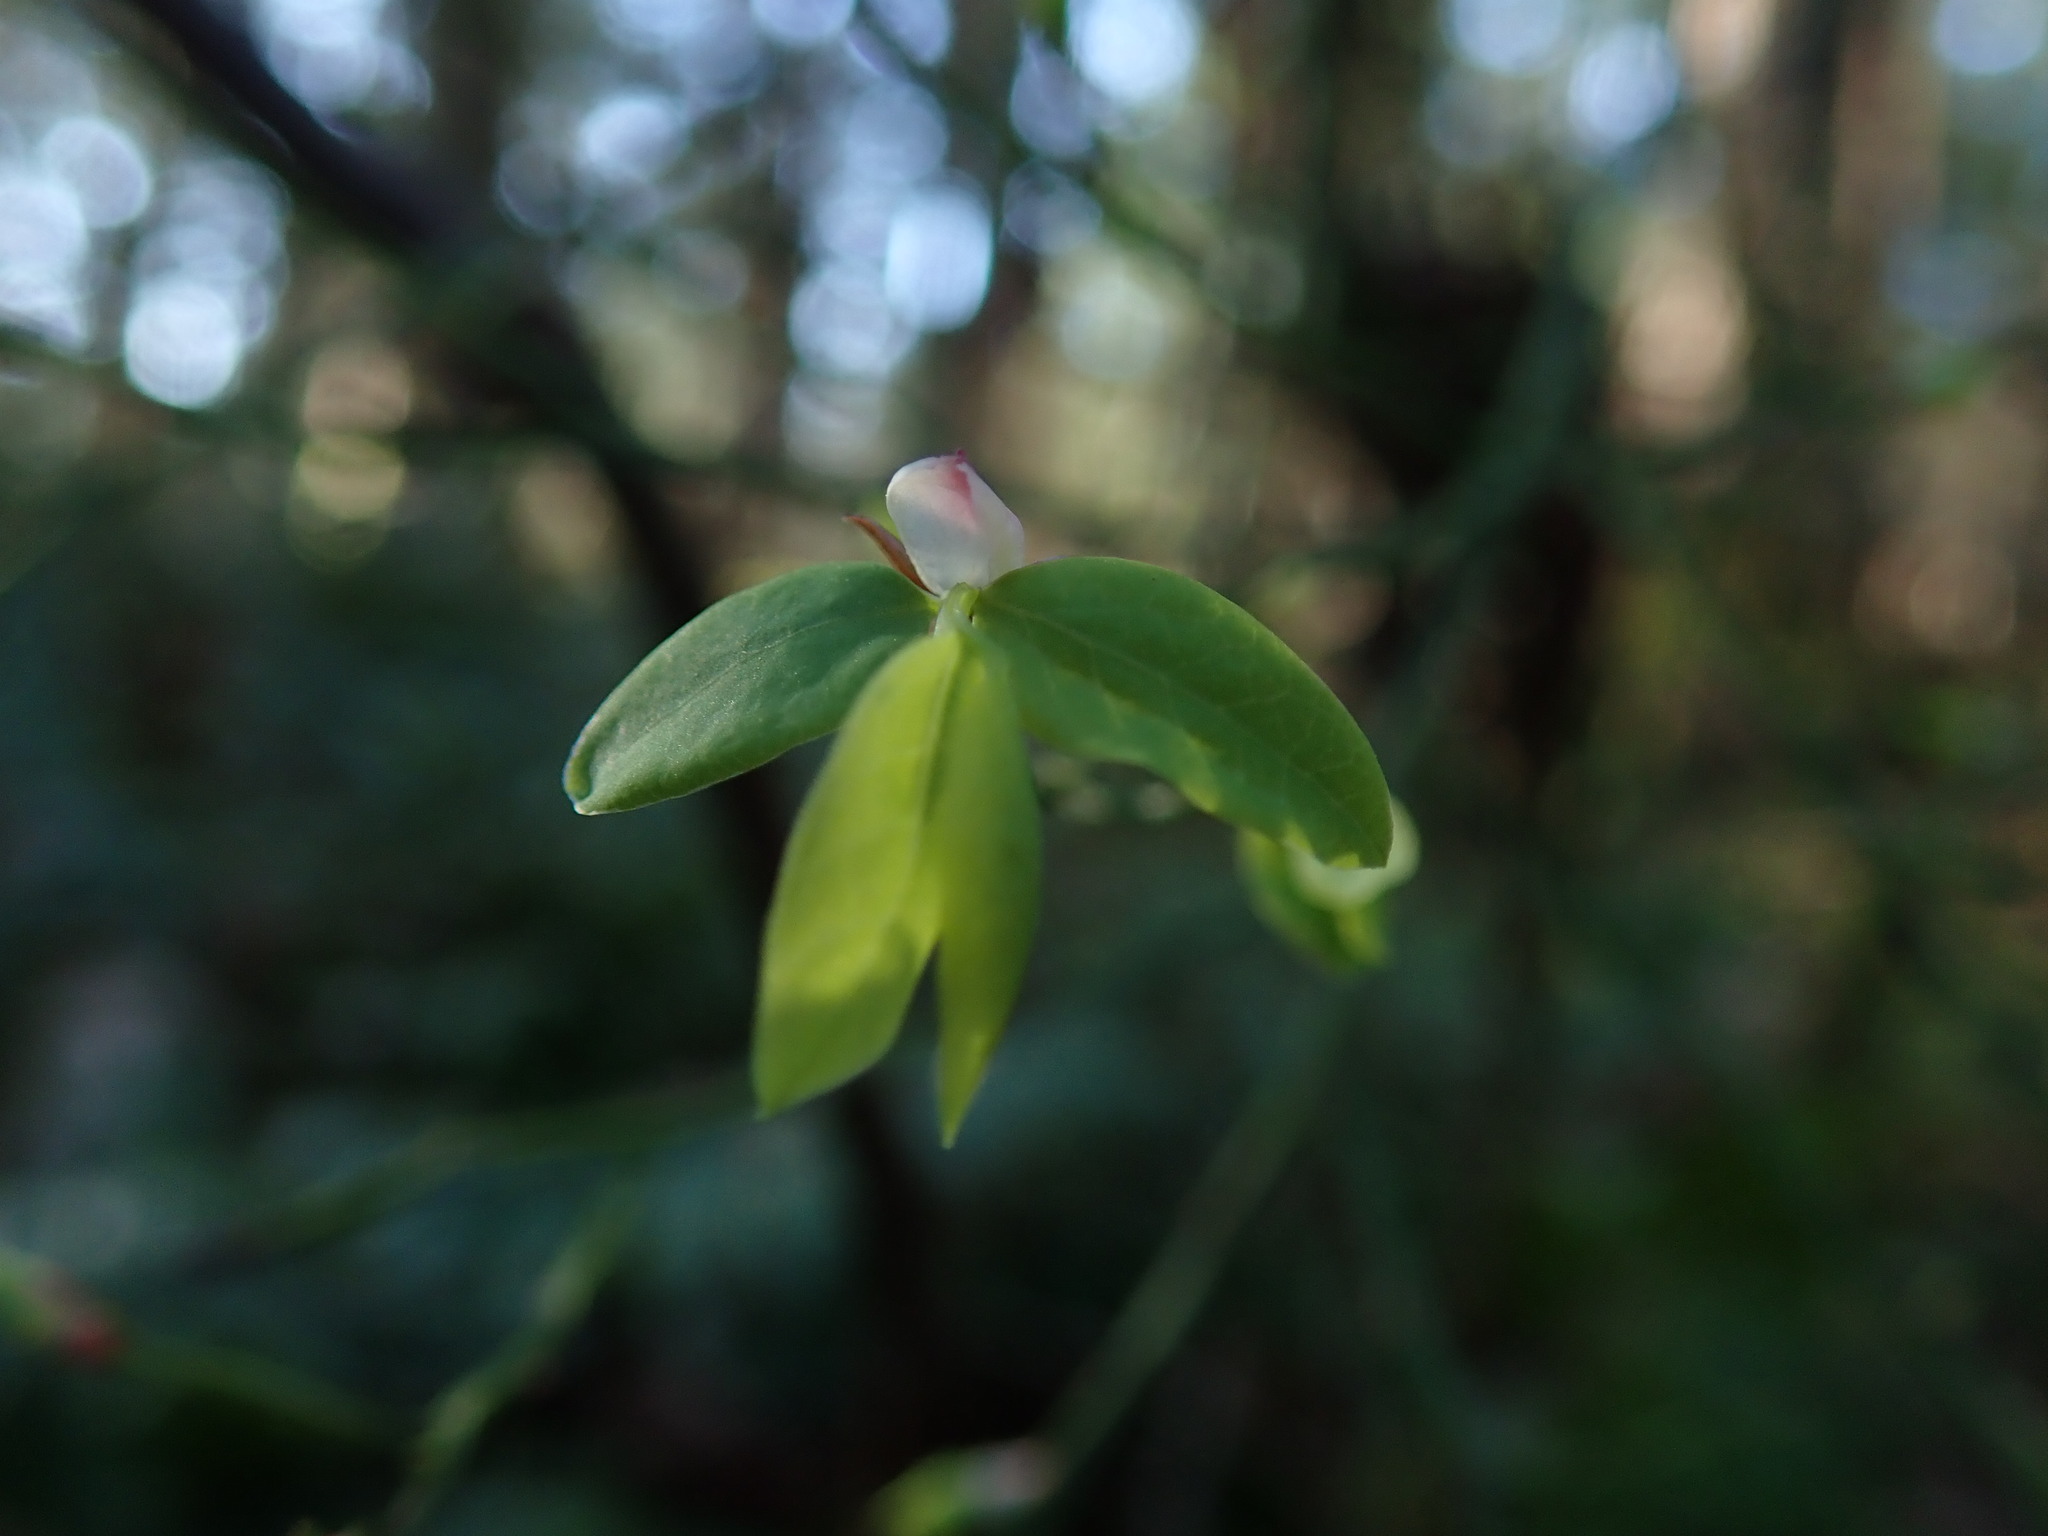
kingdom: Plantae
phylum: Tracheophyta
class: Magnoliopsida
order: Ericales
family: Ericaceae
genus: Vaccinium
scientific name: Vaccinium parvifolium
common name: Red-huckleberry
